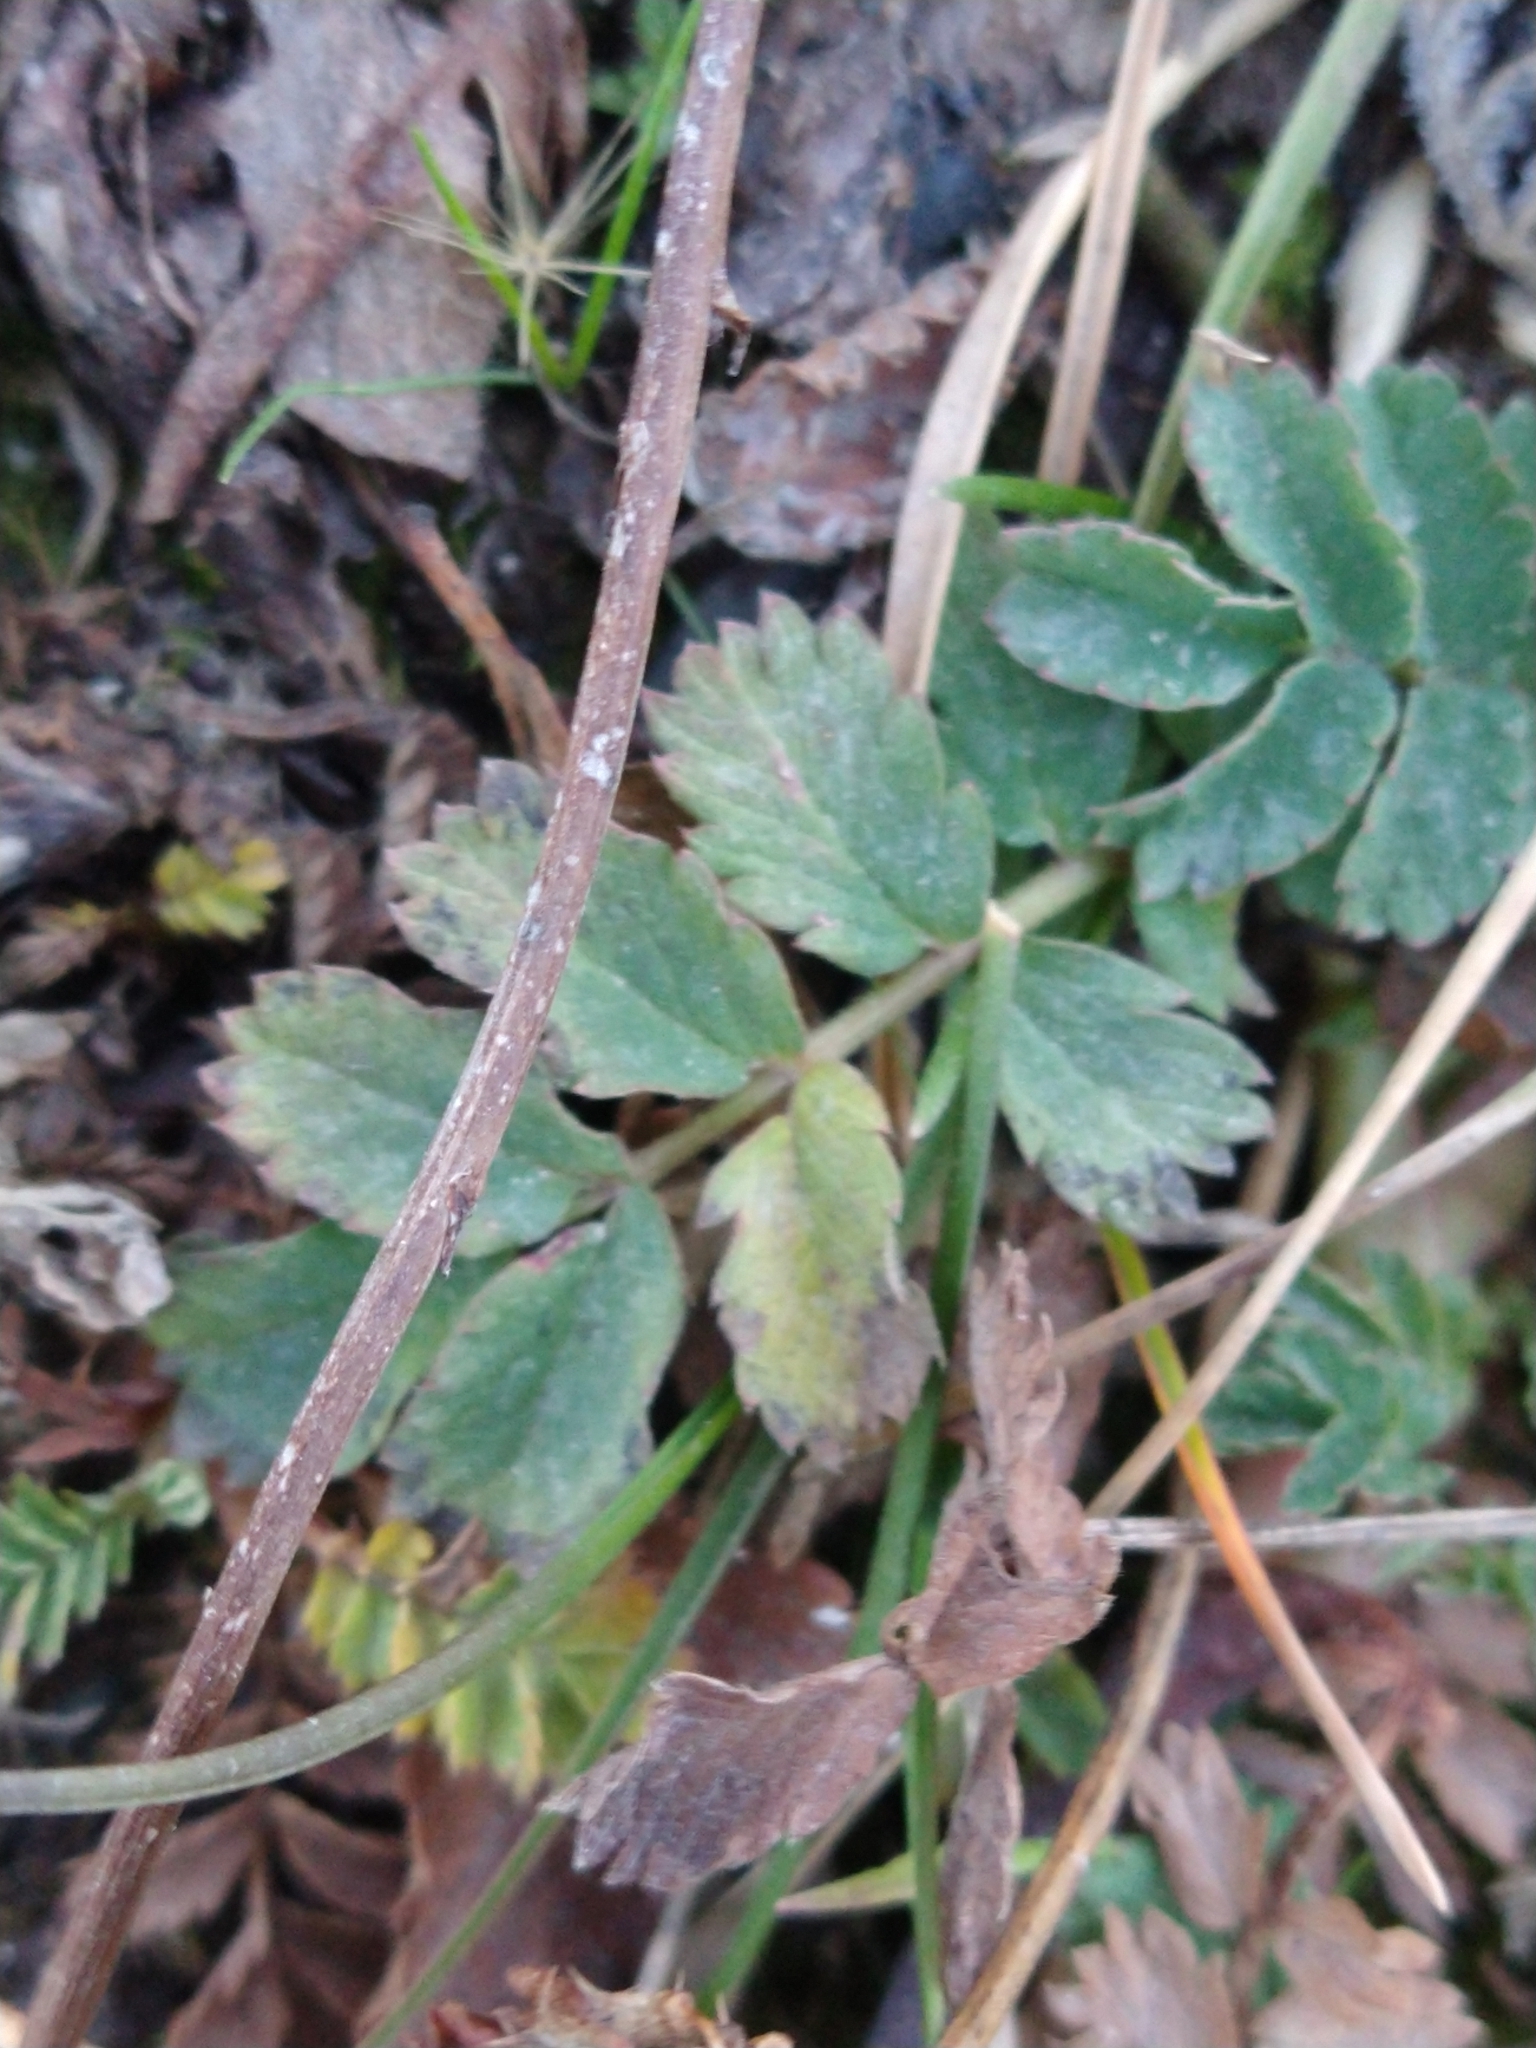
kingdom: Plantae
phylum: Tracheophyta
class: Magnoliopsida
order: Rosales
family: Rosaceae
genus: Acaena
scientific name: Acaena magellanica
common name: New zealand burr
